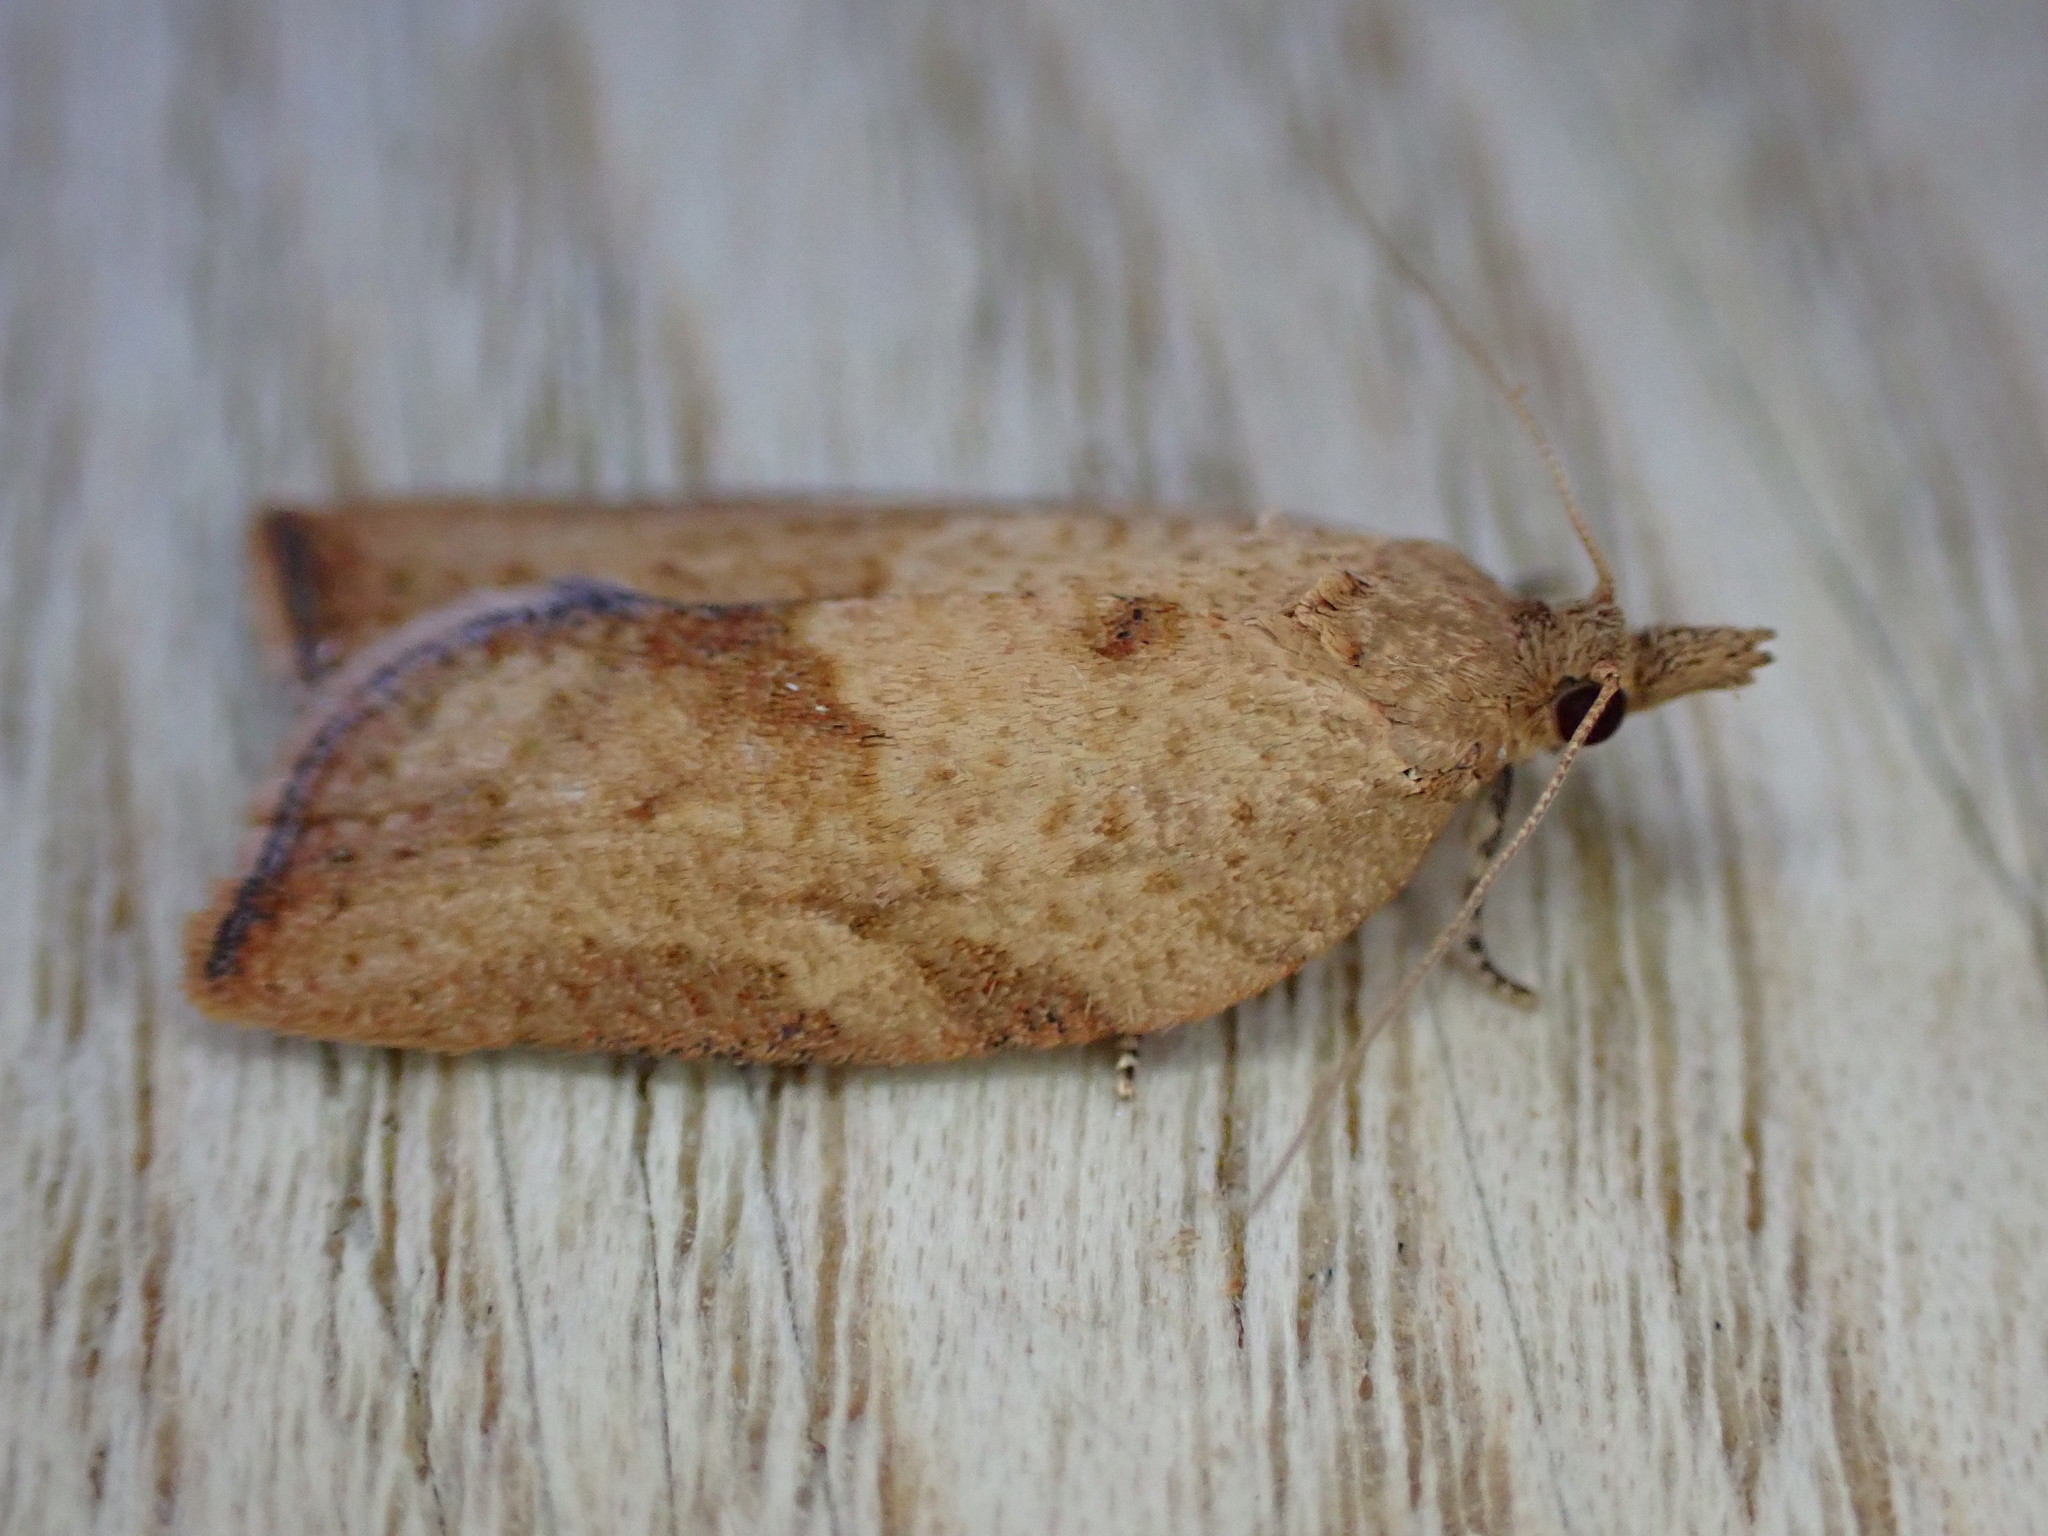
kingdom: Animalia
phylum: Arthropoda
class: Insecta
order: Lepidoptera
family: Tortricidae
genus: Epiphyas
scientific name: Epiphyas postvittana
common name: Light brown apple moth
